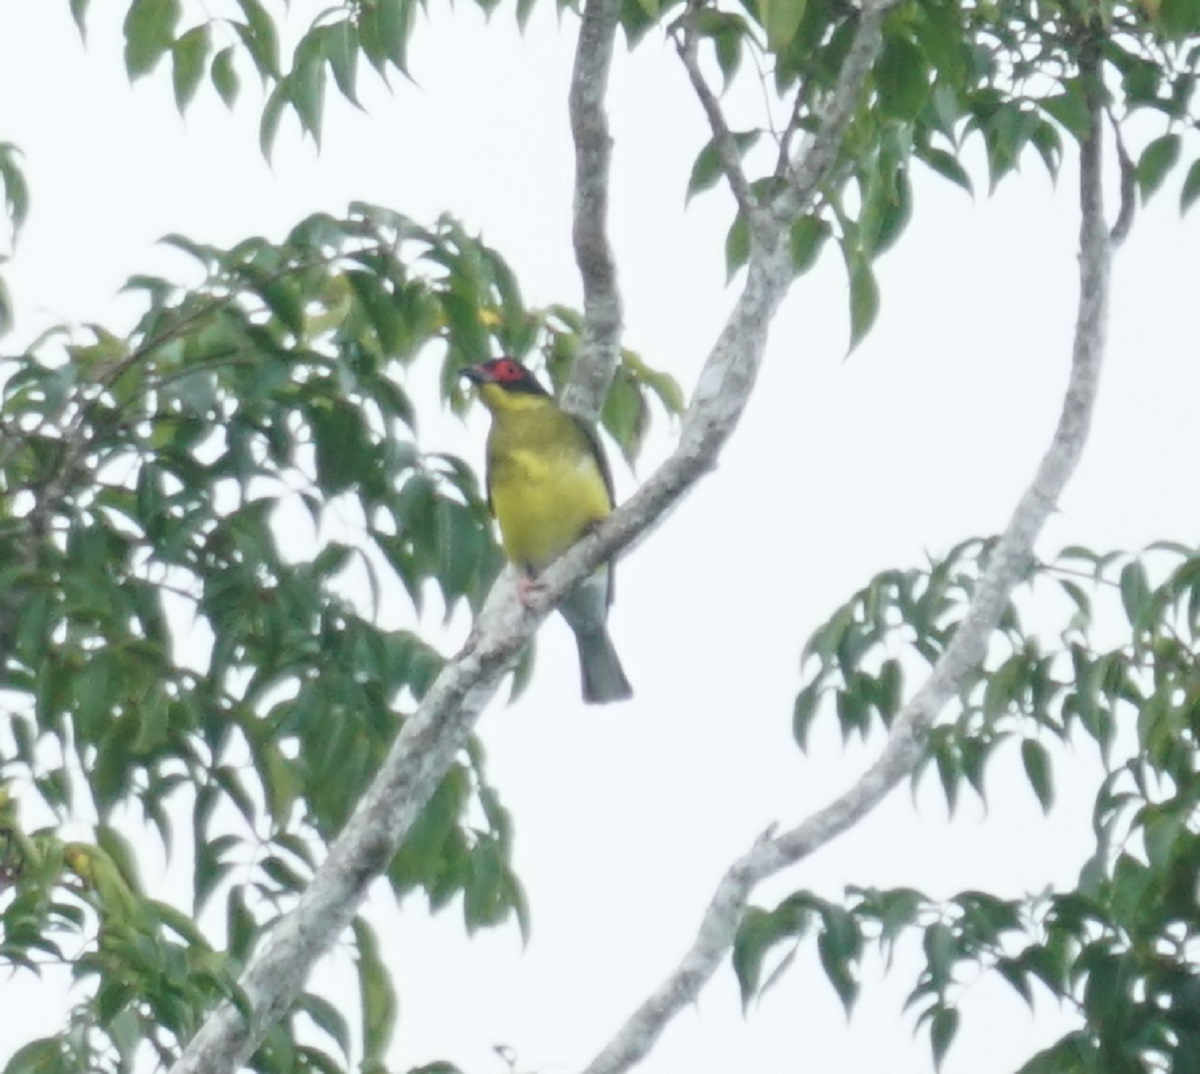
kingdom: Animalia
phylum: Chordata
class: Aves
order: Passeriformes
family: Oriolidae
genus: Sphecotheres
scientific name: Sphecotheres vieilloti
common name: Australasian figbird
